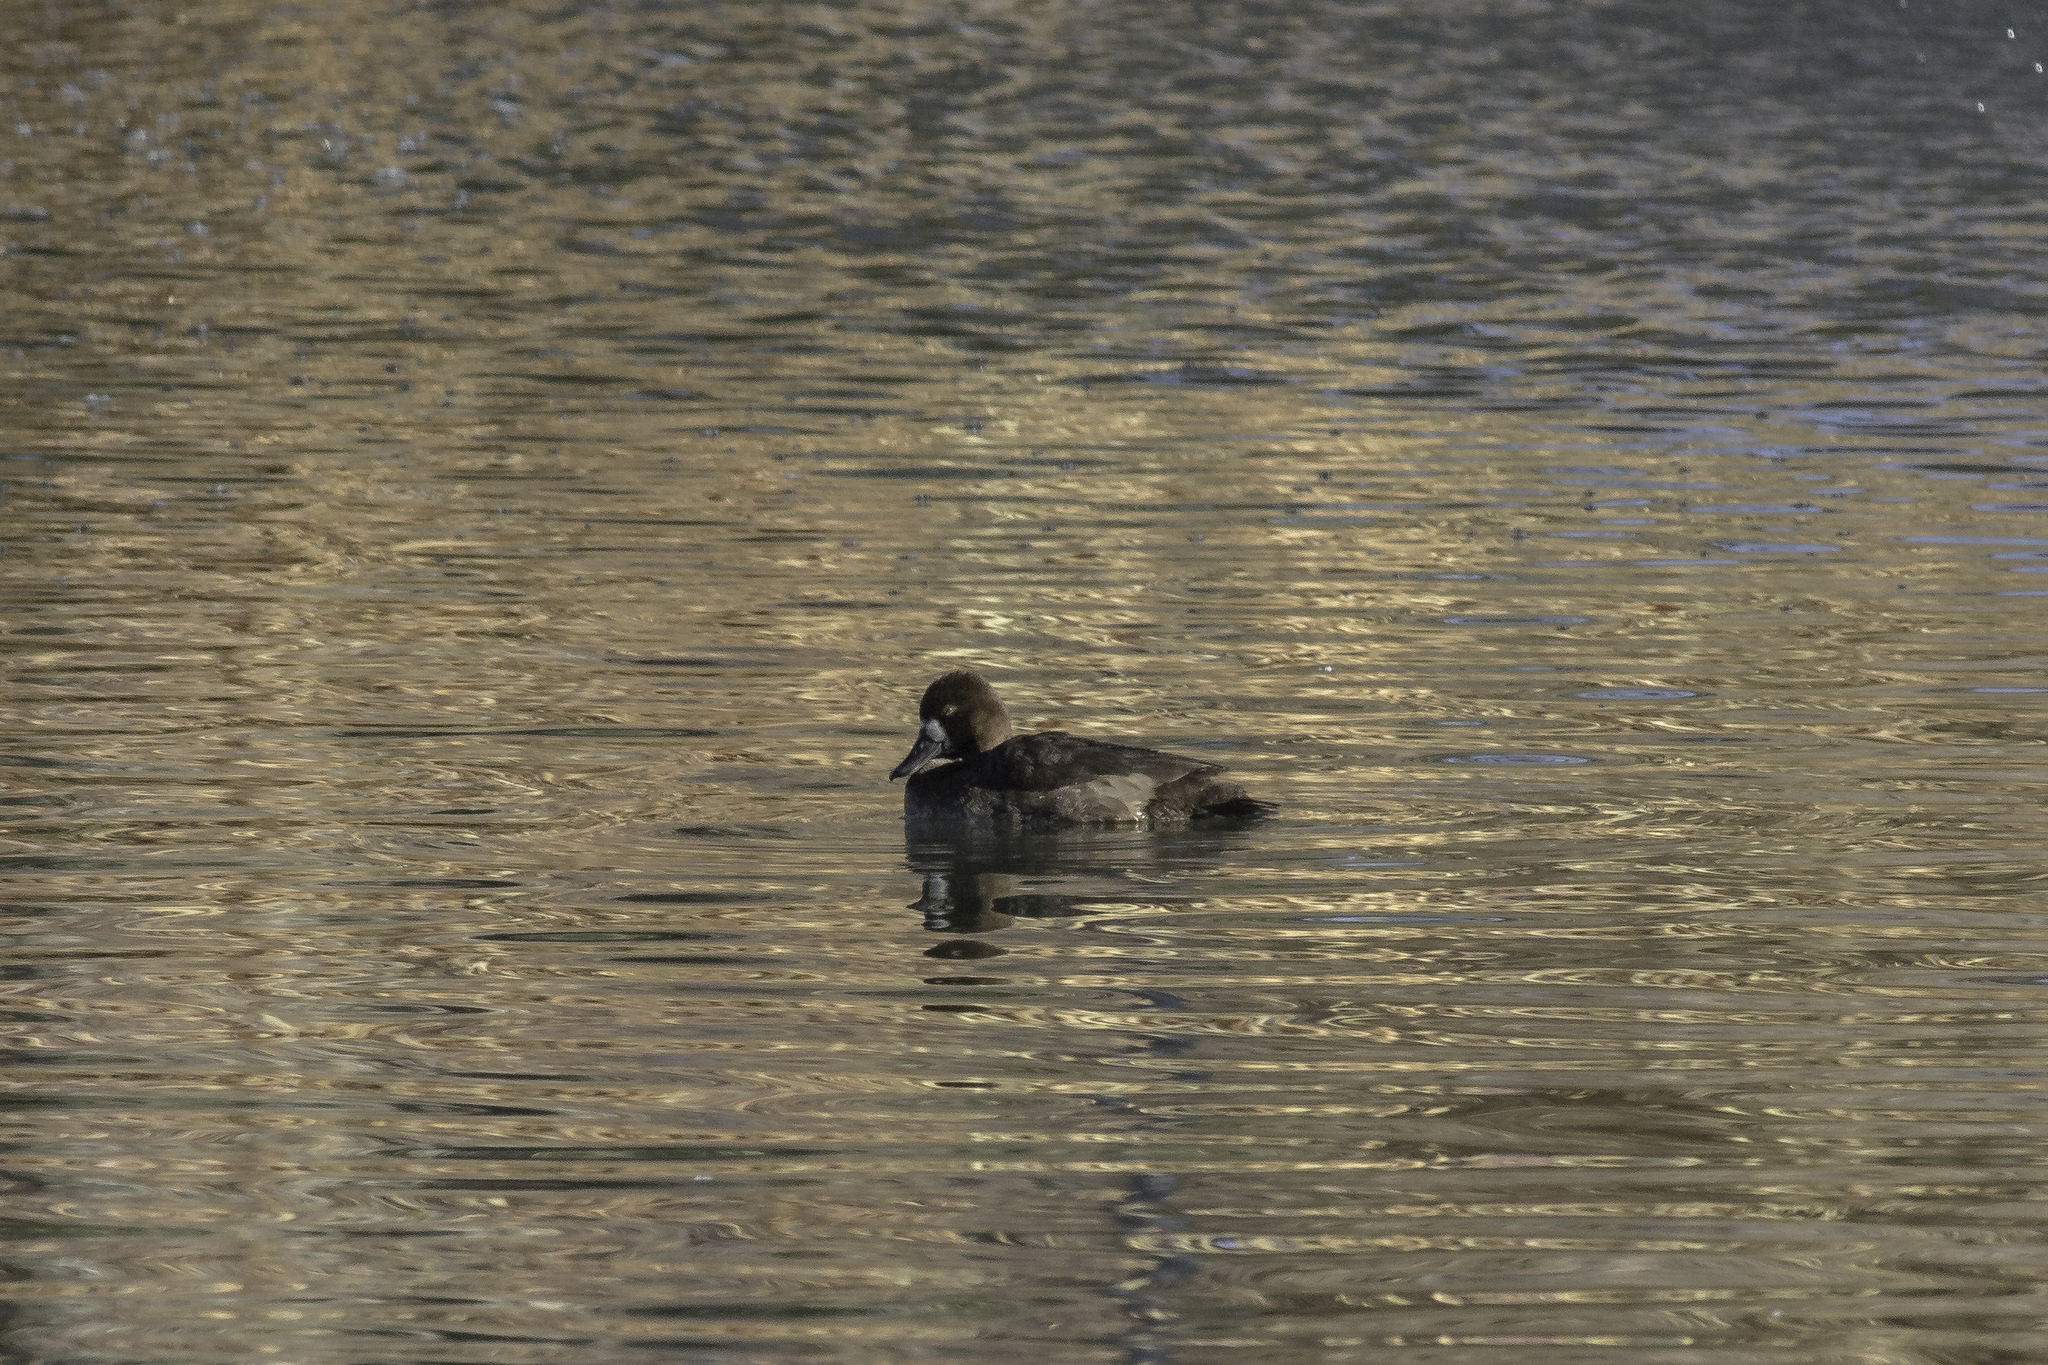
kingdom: Animalia
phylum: Chordata
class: Aves
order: Anseriformes
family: Anatidae
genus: Aythya
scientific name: Aythya affinis
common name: Lesser scaup
